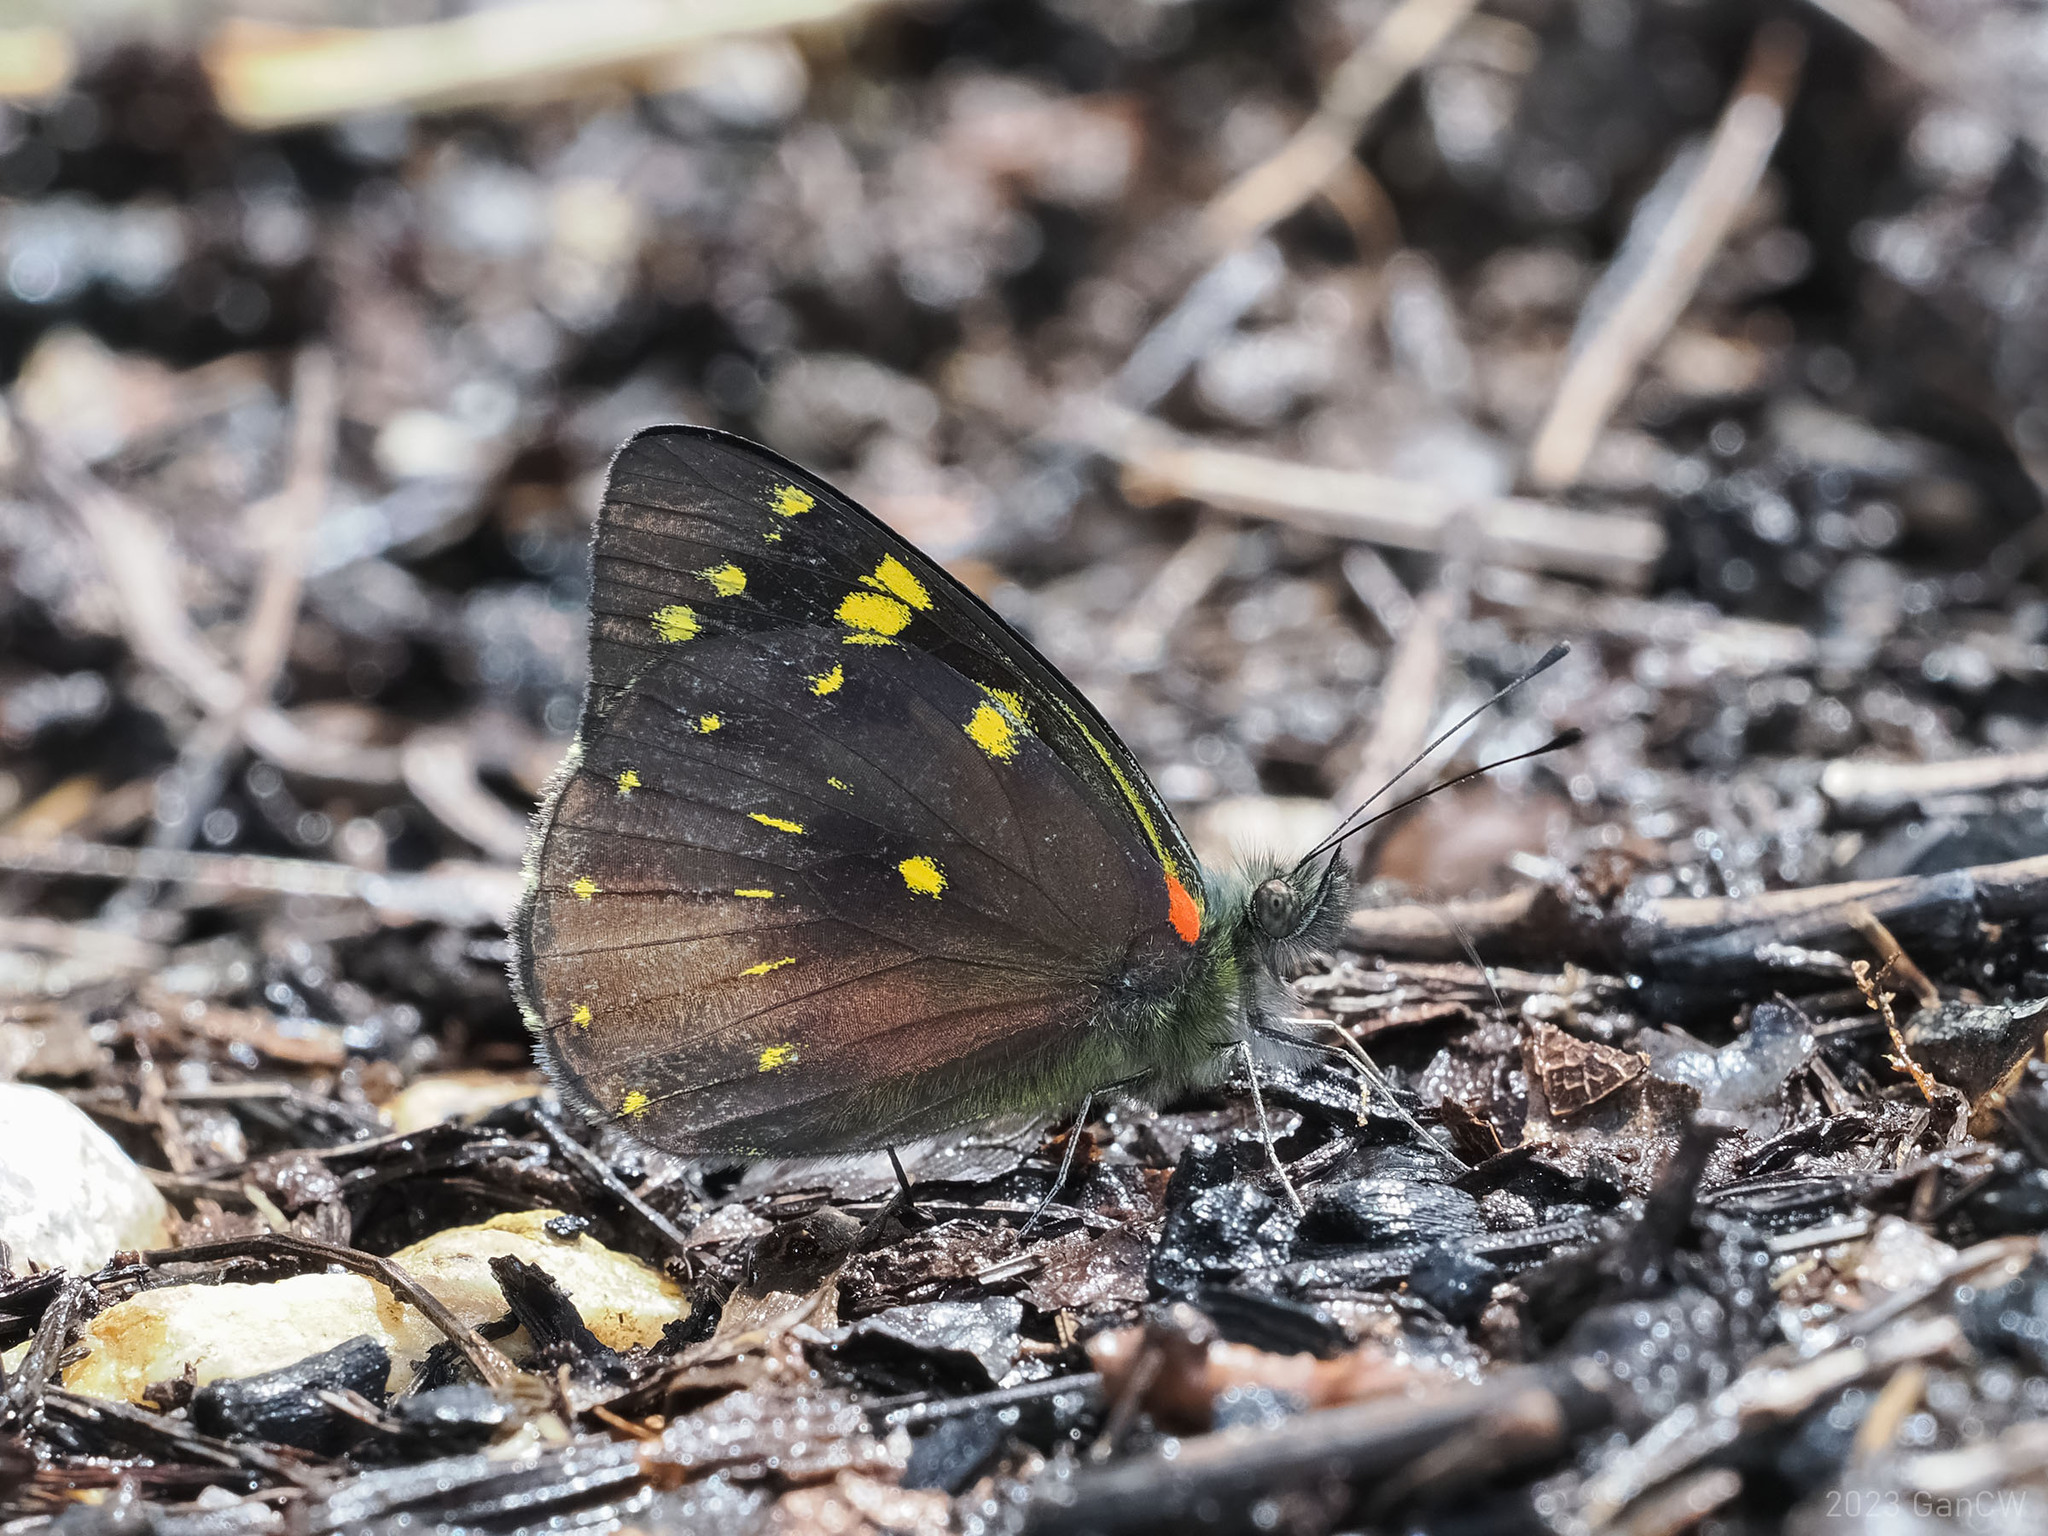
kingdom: Animalia
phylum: Arthropoda
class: Insecta
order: Lepidoptera
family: Pieridae
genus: Delias
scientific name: Delias microsticha
